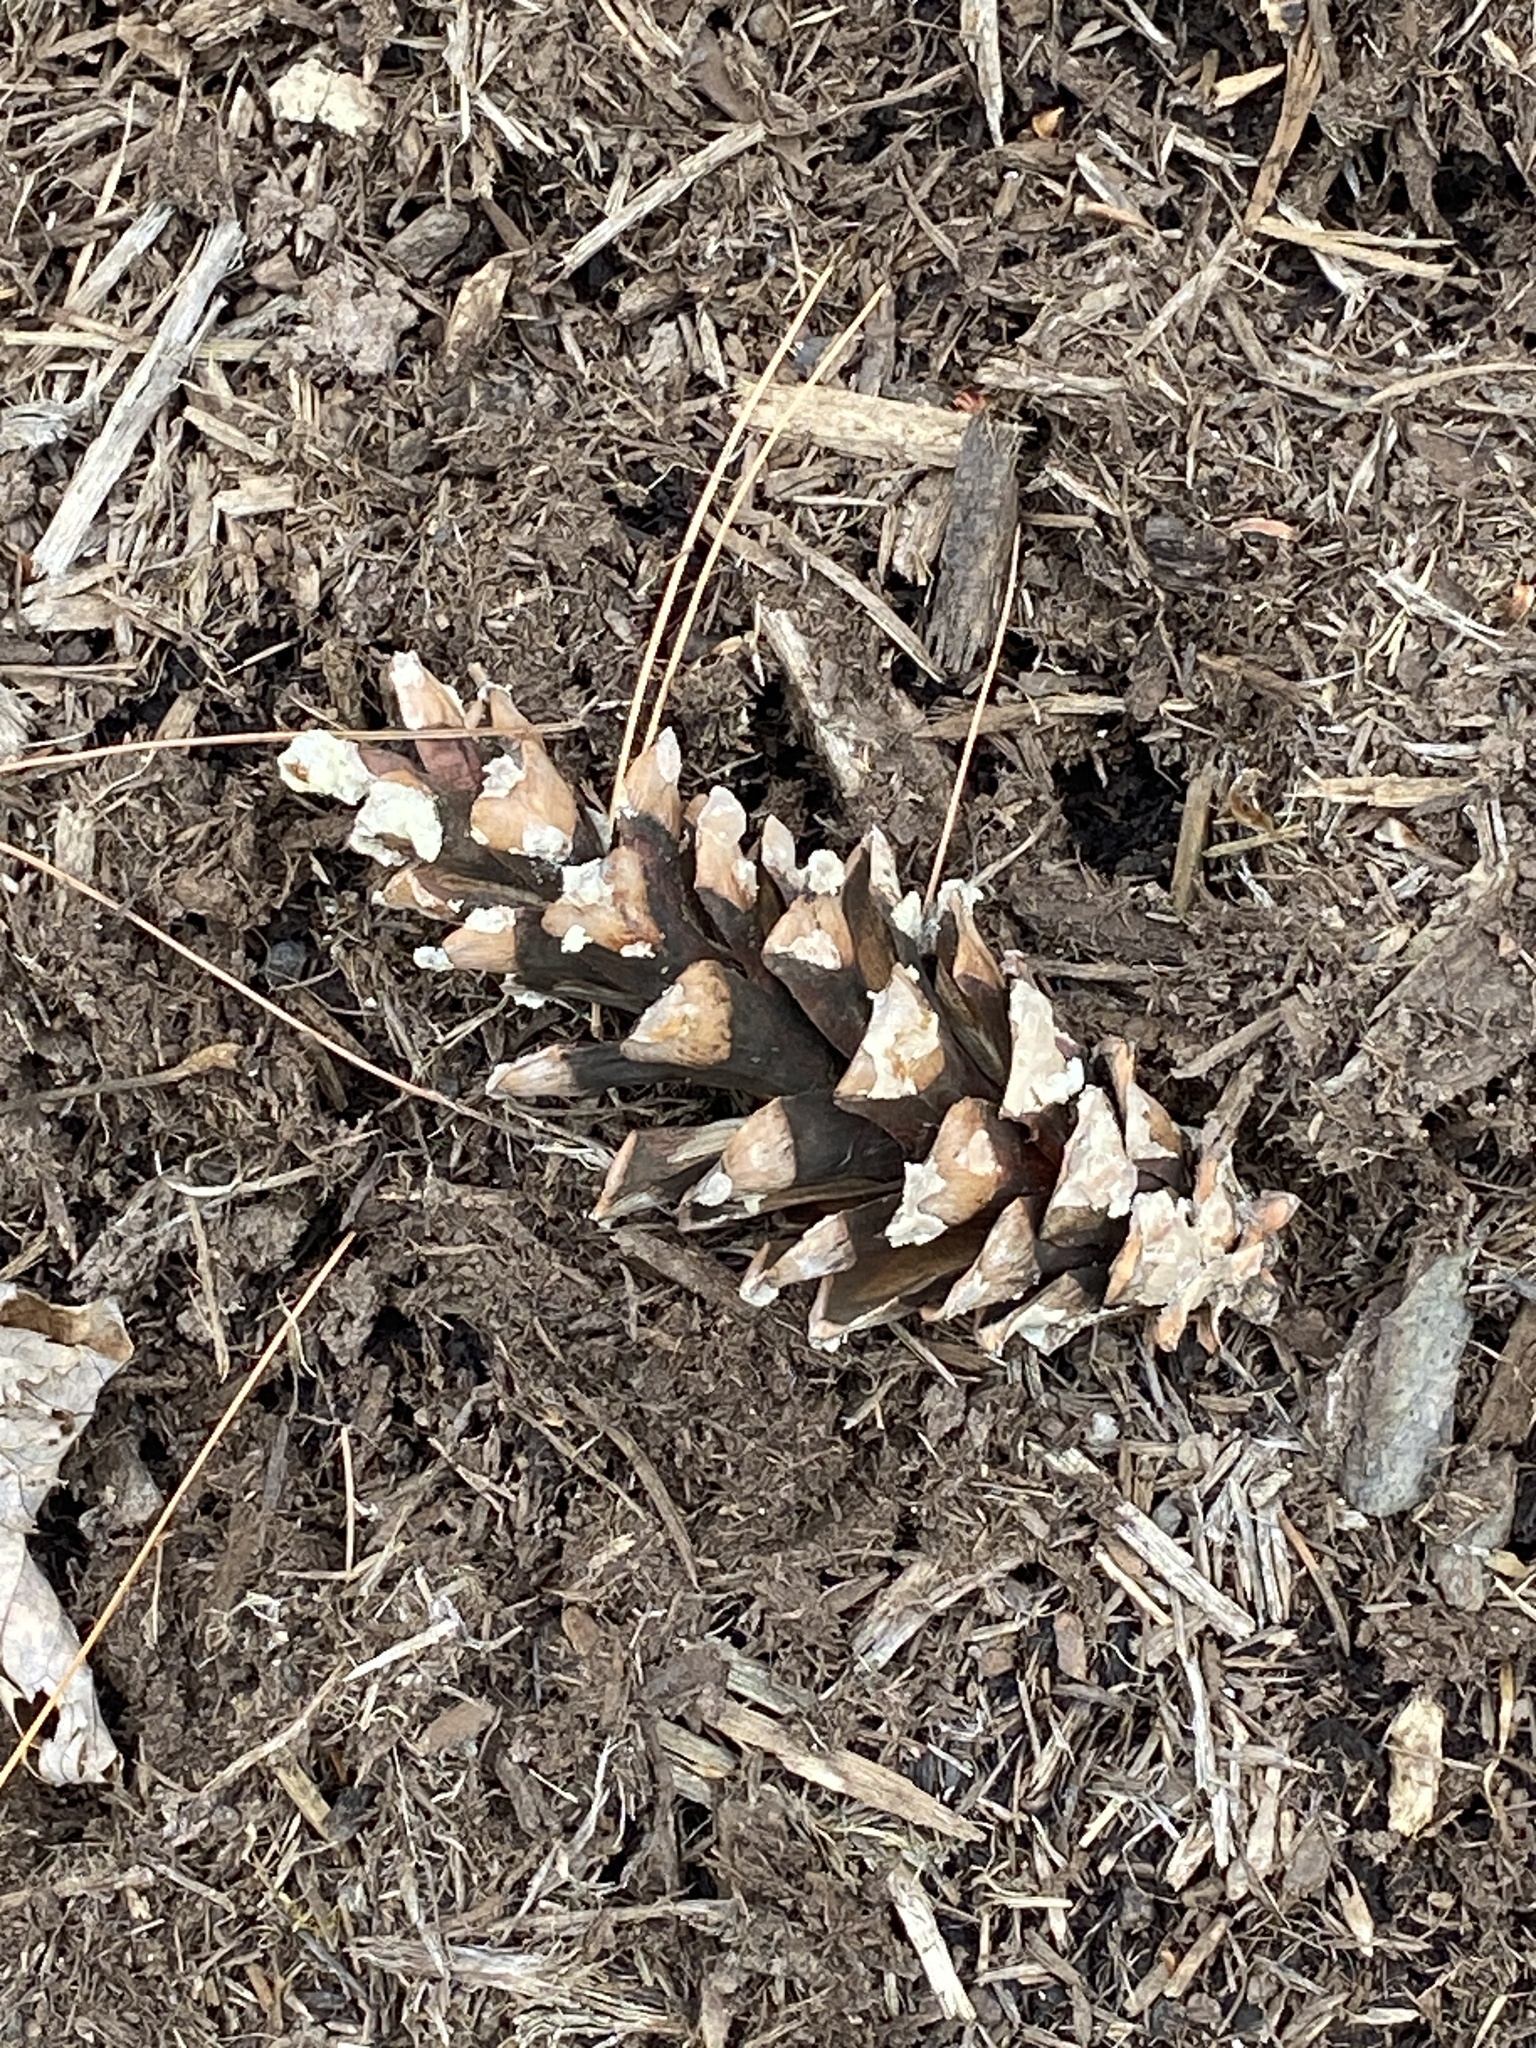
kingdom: Plantae
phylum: Tracheophyta
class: Pinopsida
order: Pinales
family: Pinaceae
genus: Pinus
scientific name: Pinus strobus
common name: Weymouth pine
